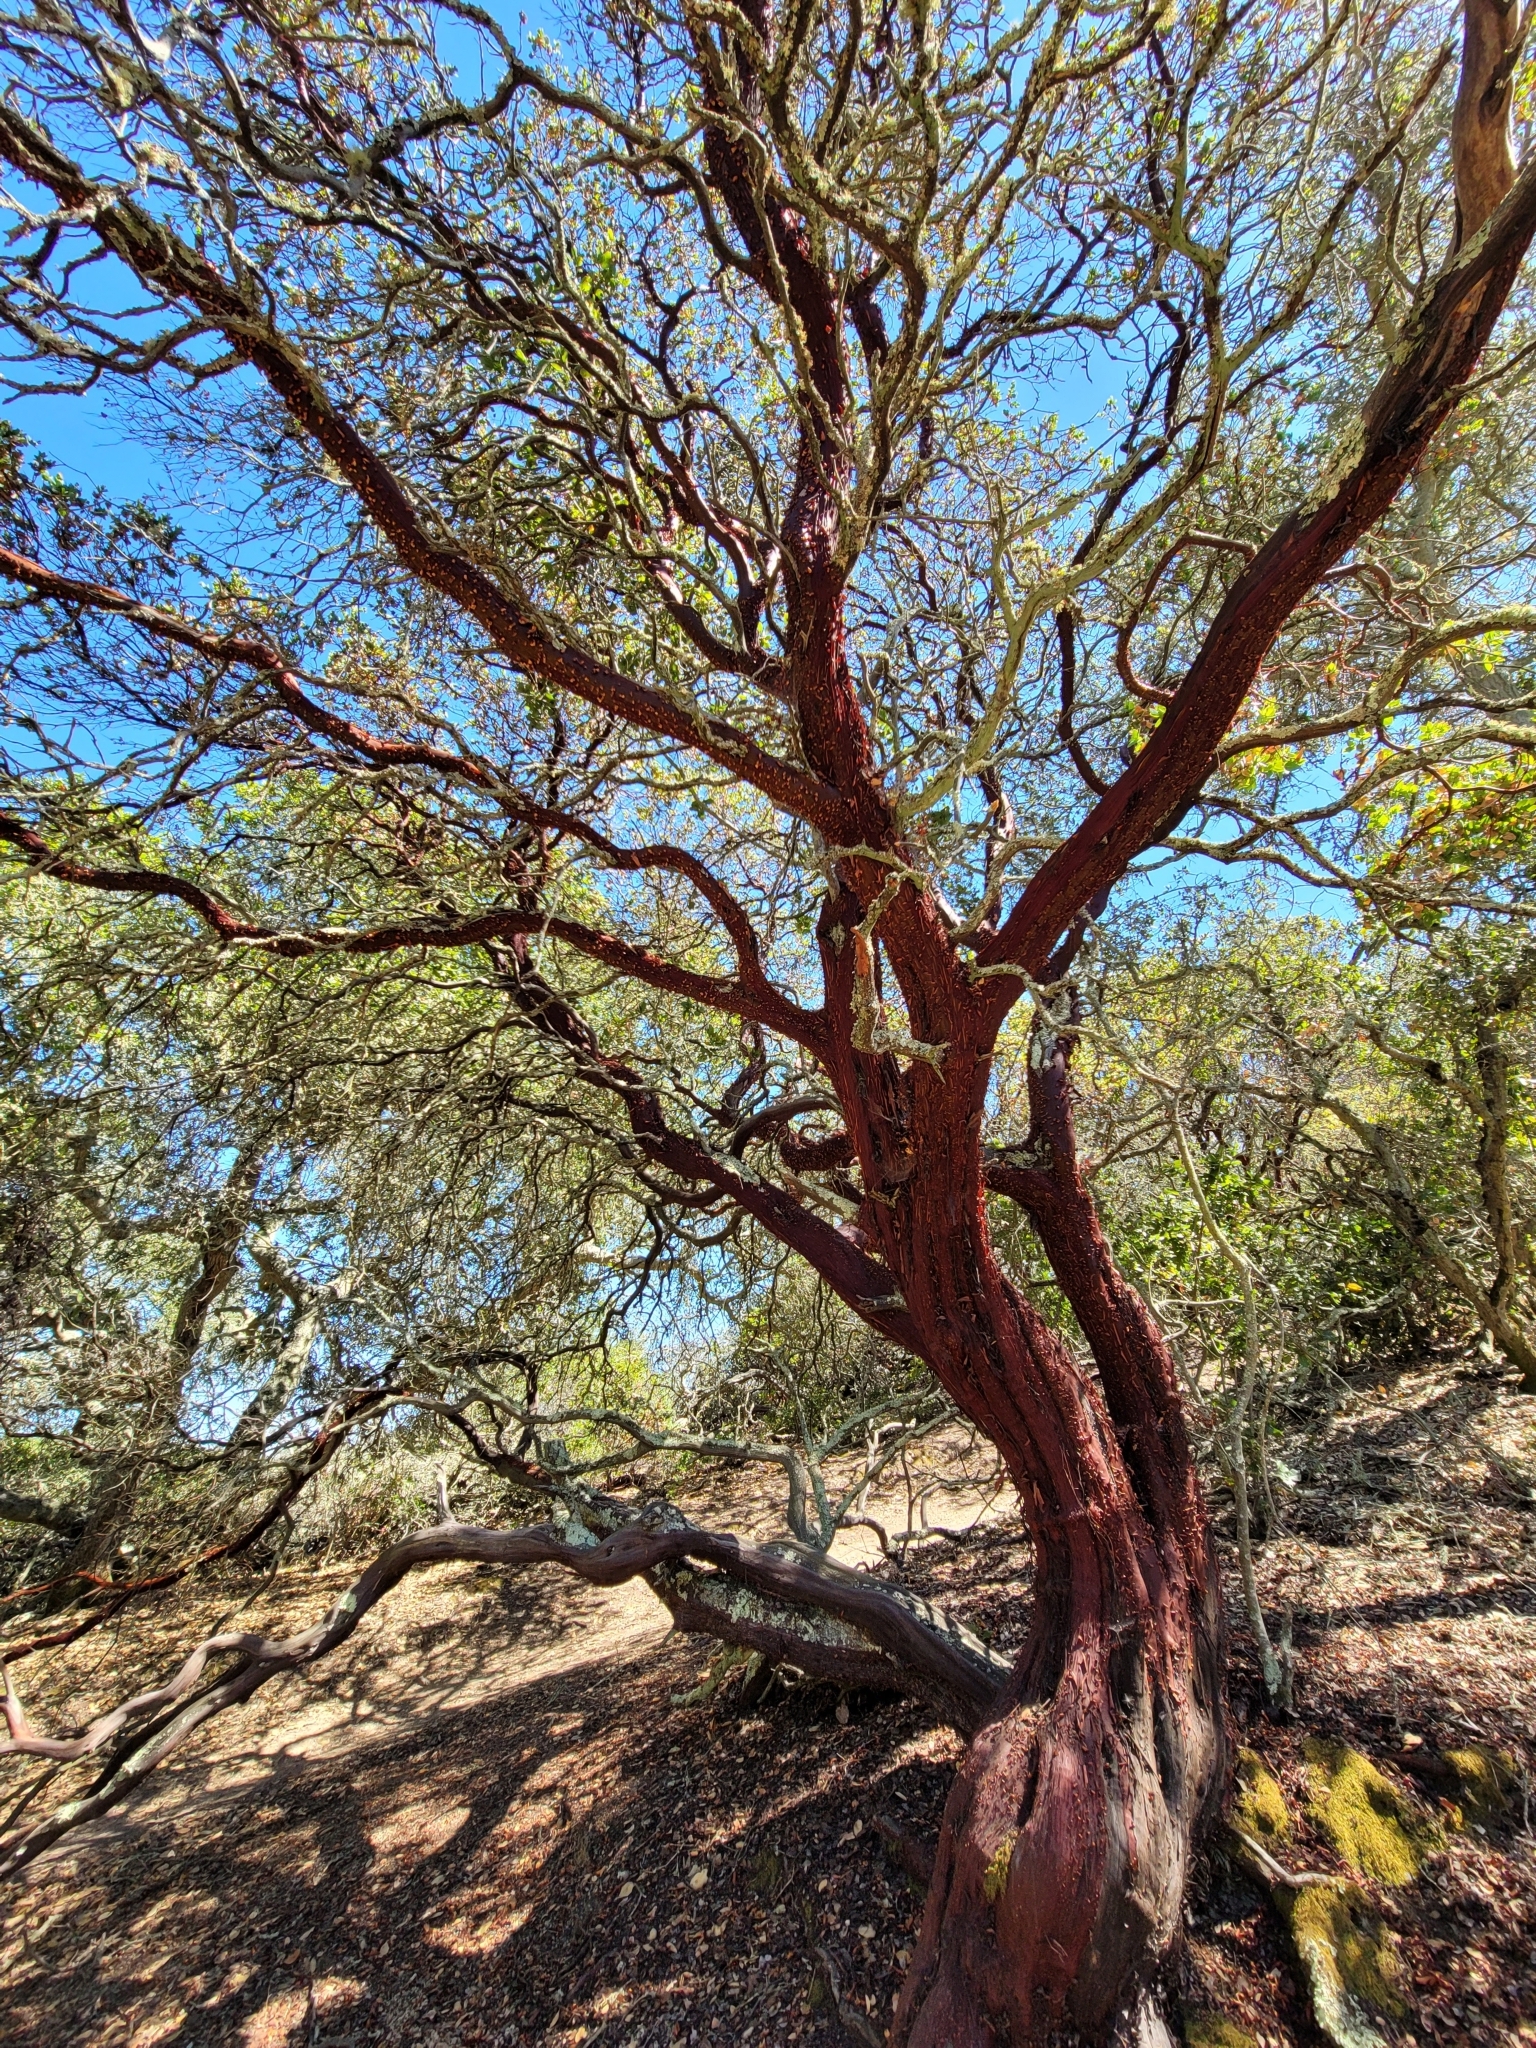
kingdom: Plantae
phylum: Tracheophyta
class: Magnoliopsida
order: Ericales
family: Ericaceae
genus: Arctostaphylos
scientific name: Arctostaphylos pallida
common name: Pallid manzanita
